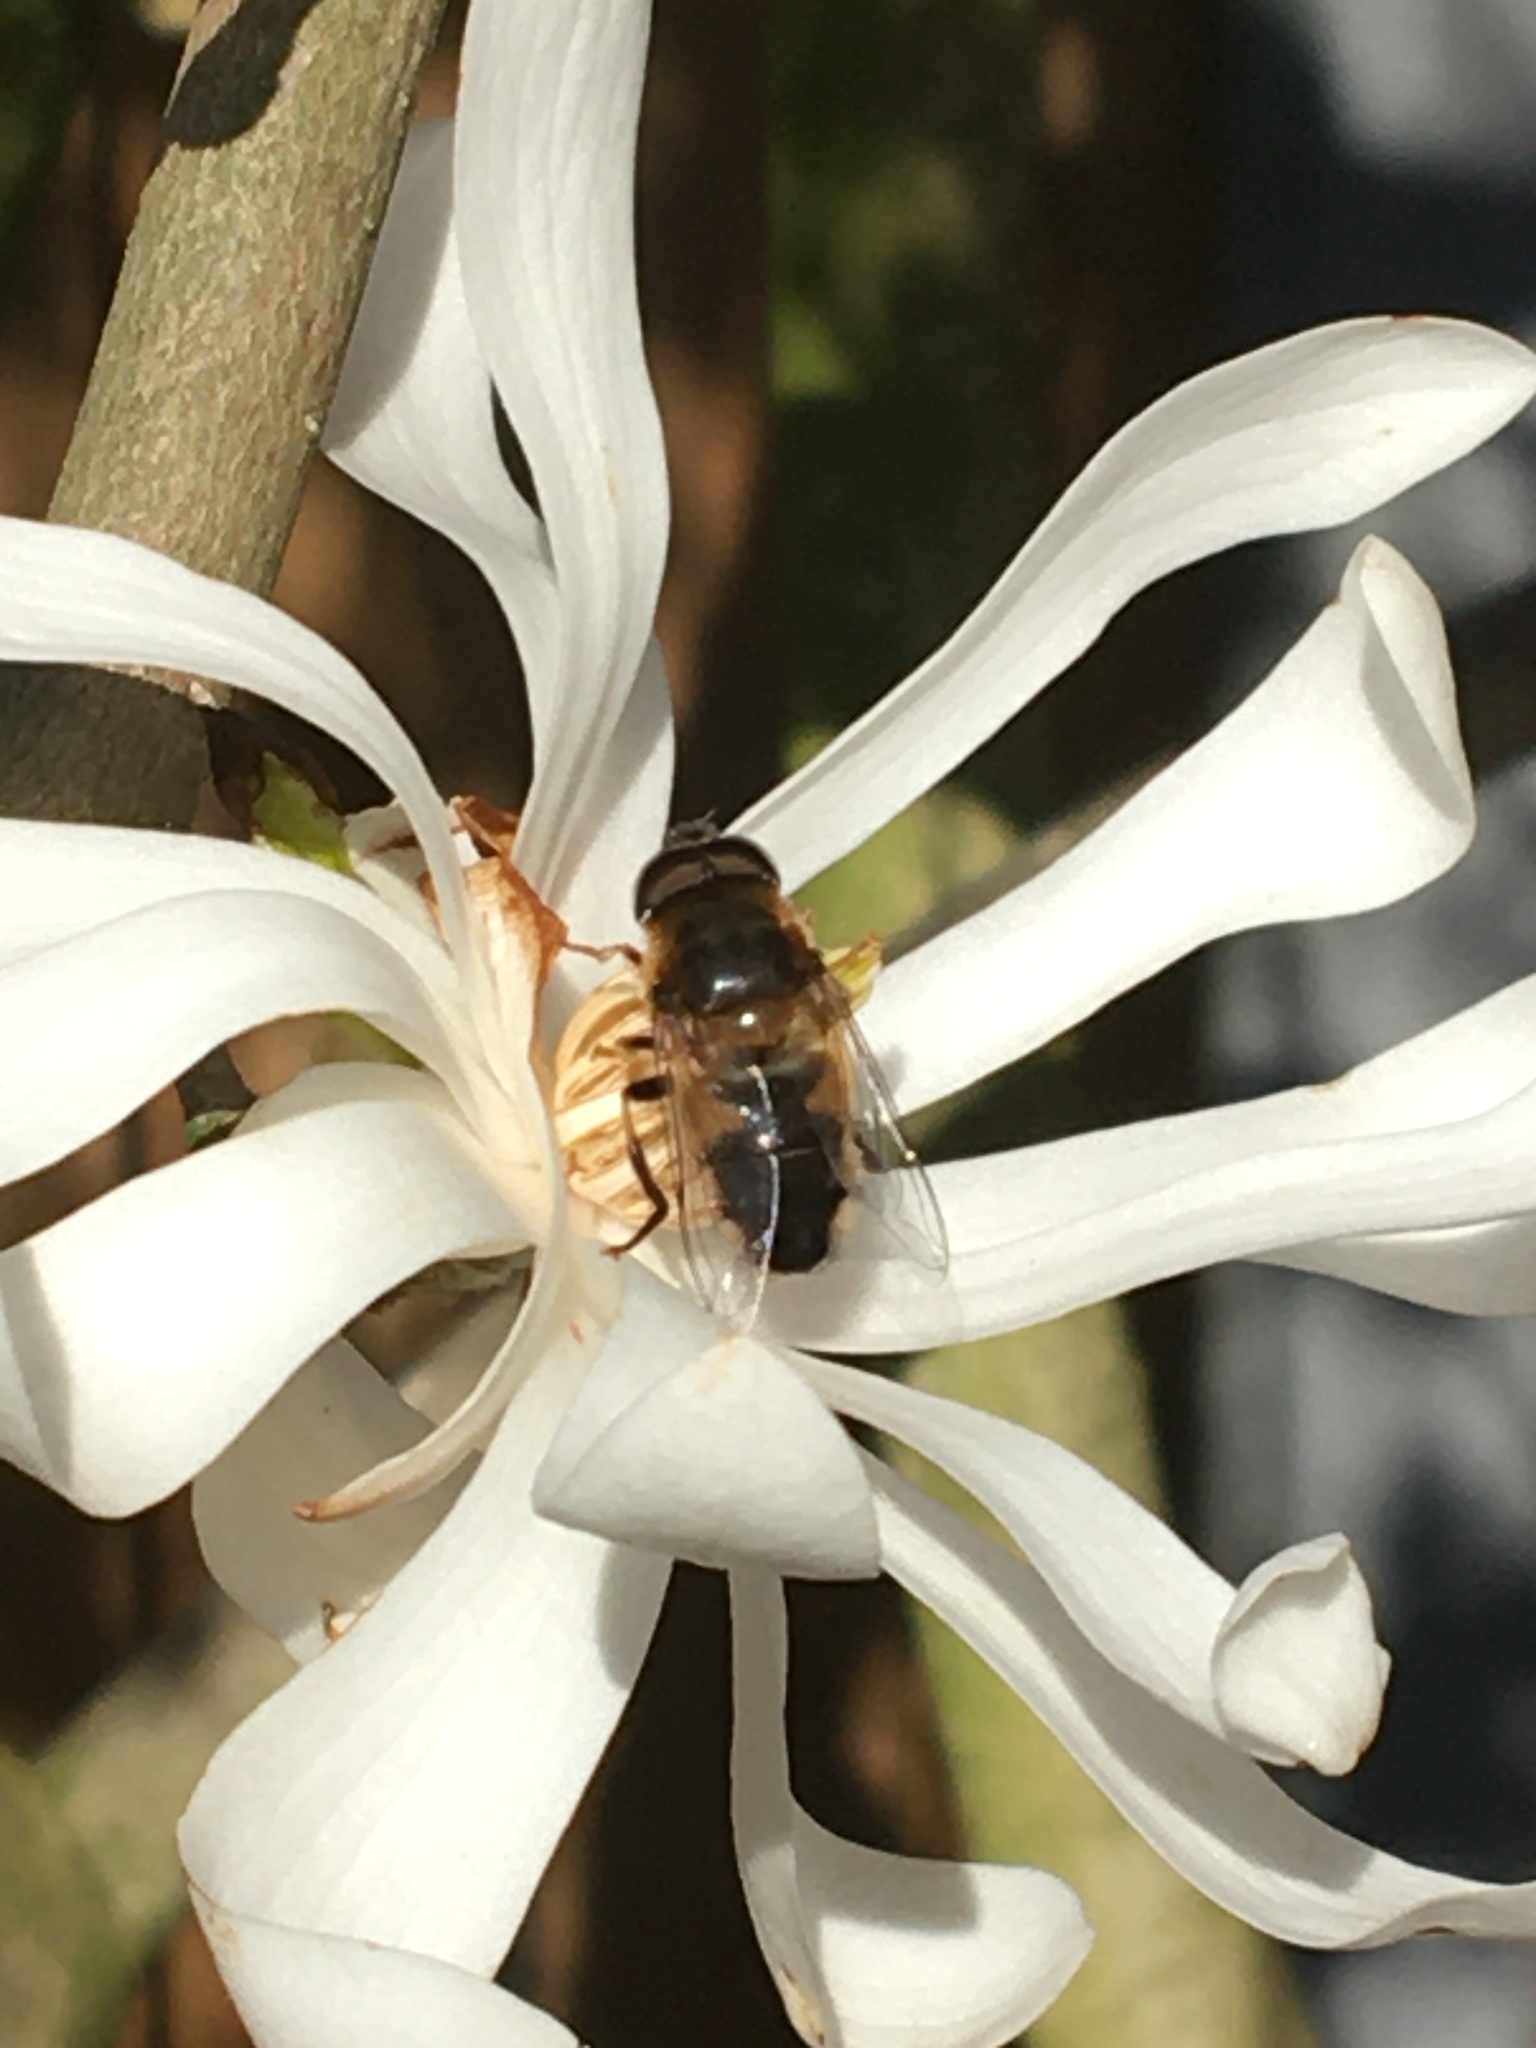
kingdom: Animalia
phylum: Arthropoda
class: Insecta
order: Diptera
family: Syrphidae
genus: Eristalis
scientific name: Eristalis pertinax
